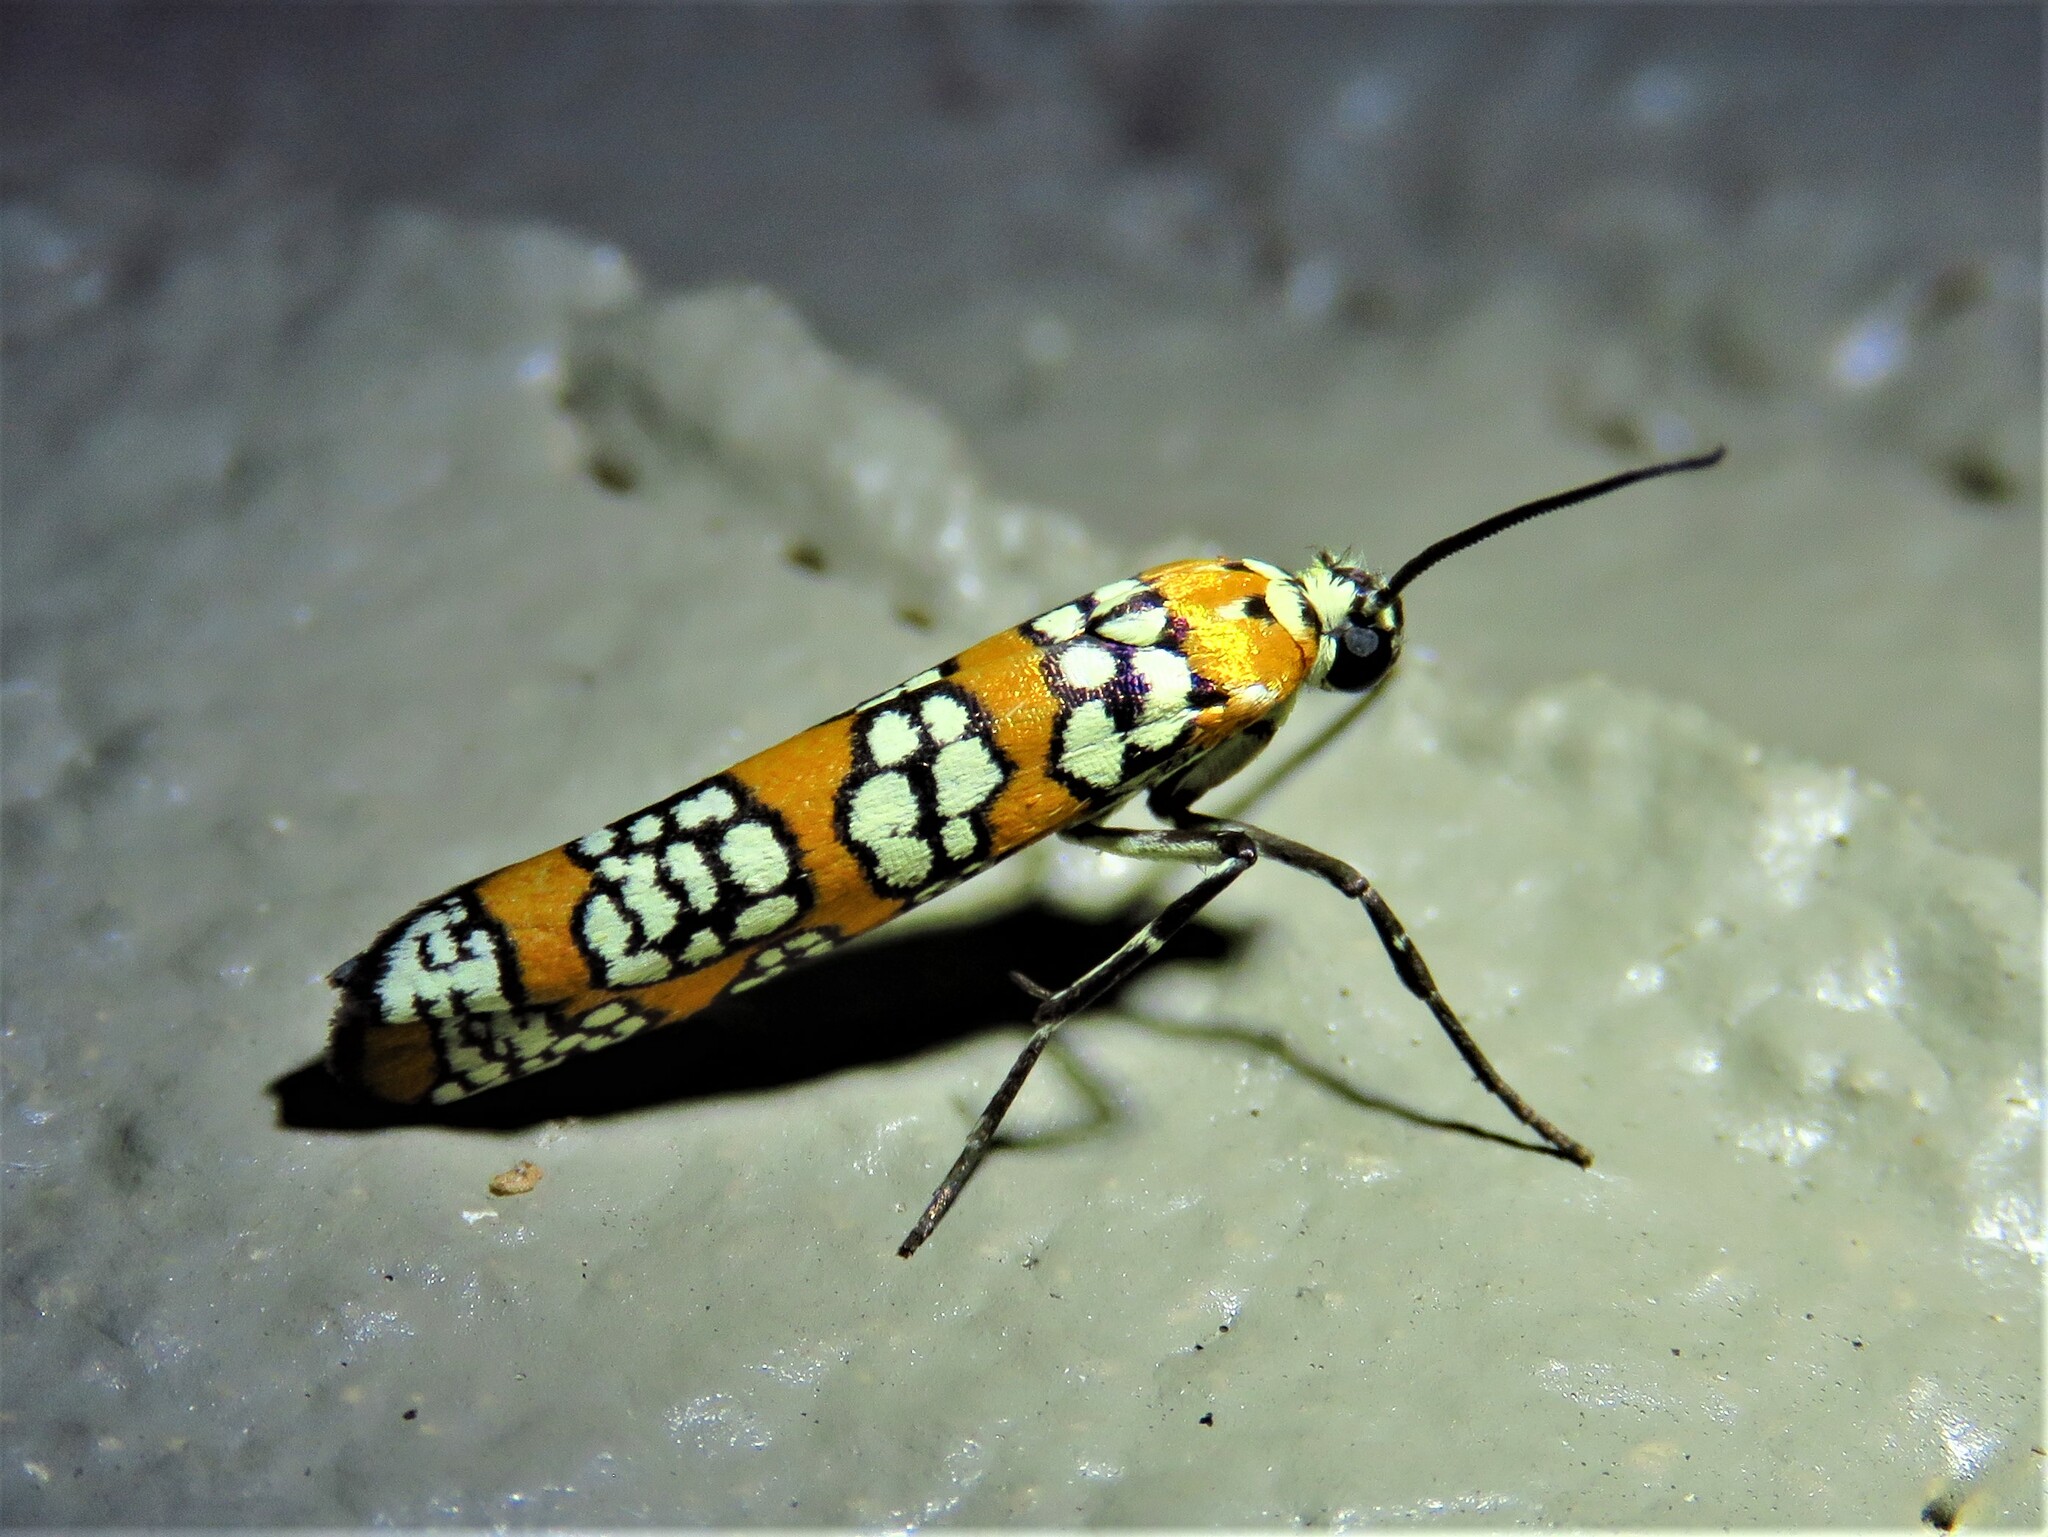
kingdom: Animalia
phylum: Arthropoda
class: Insecta
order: Lepidoptera
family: Attevidae
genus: Atteva
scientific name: Atteva punctella
